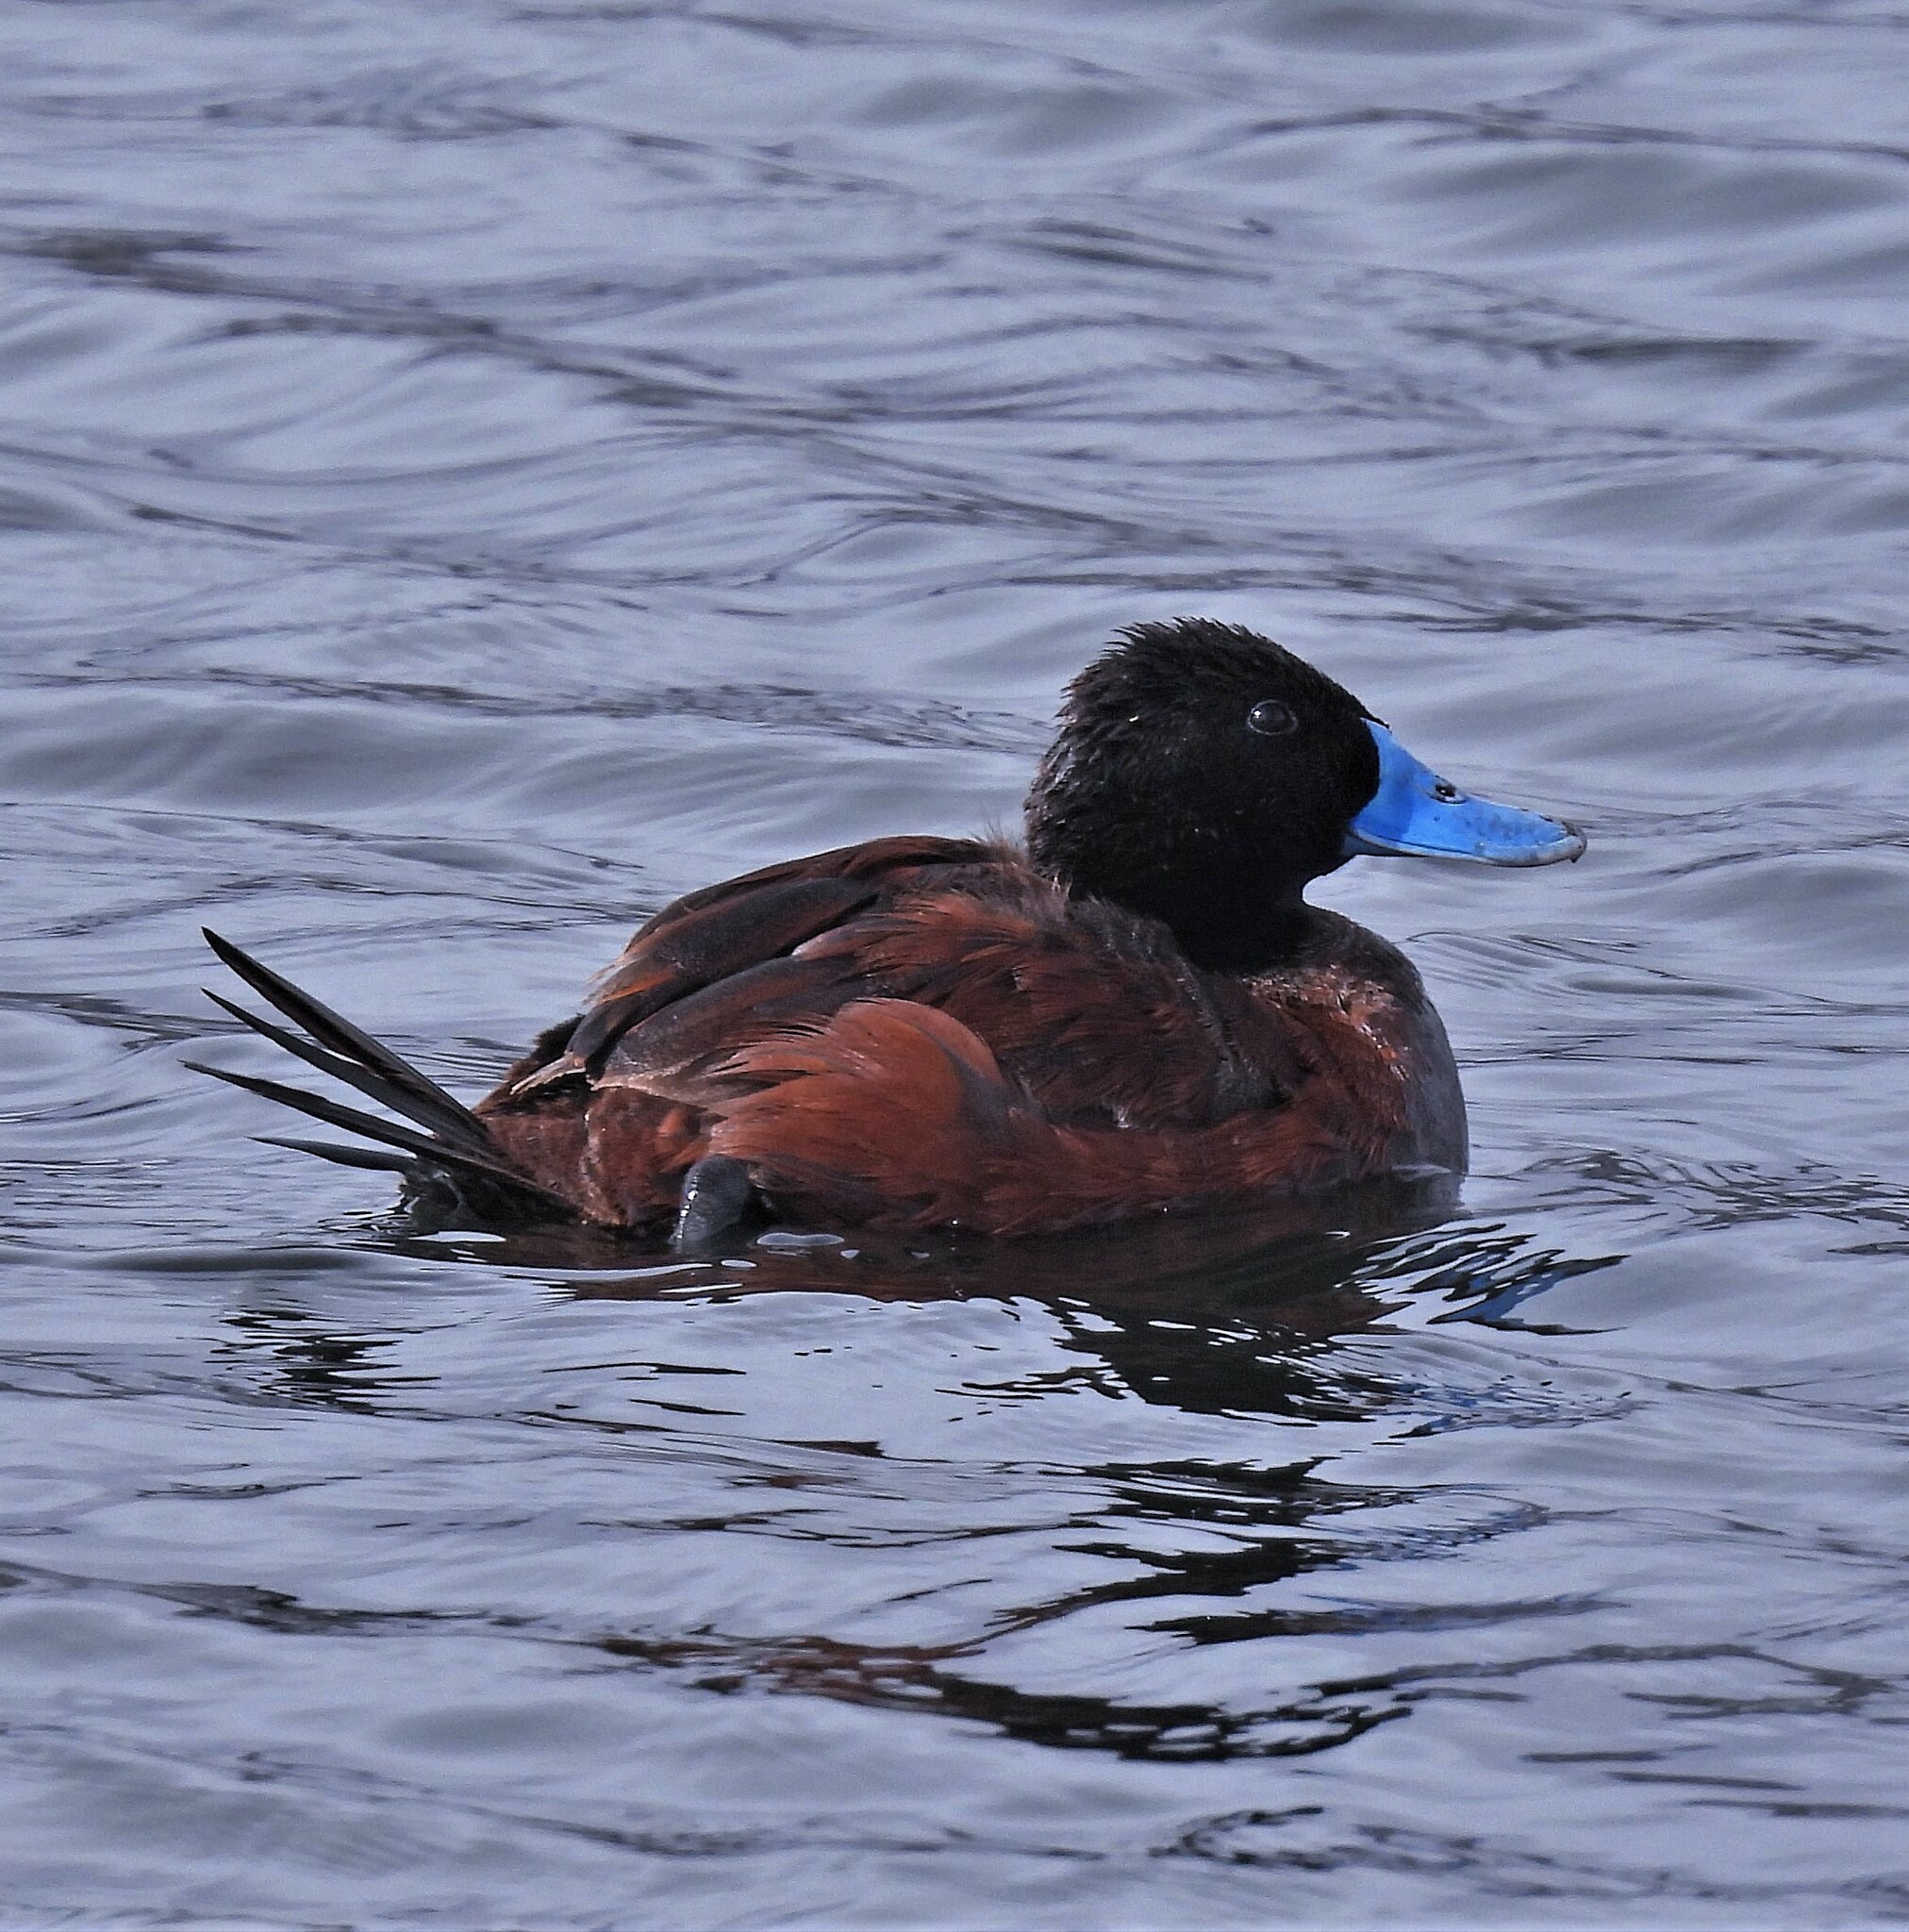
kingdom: Animalia
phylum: Chordata
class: Aves
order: Anseriformes
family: Anatidae
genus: Oxyura
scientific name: Oxyura ferruginea
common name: Andean duck
